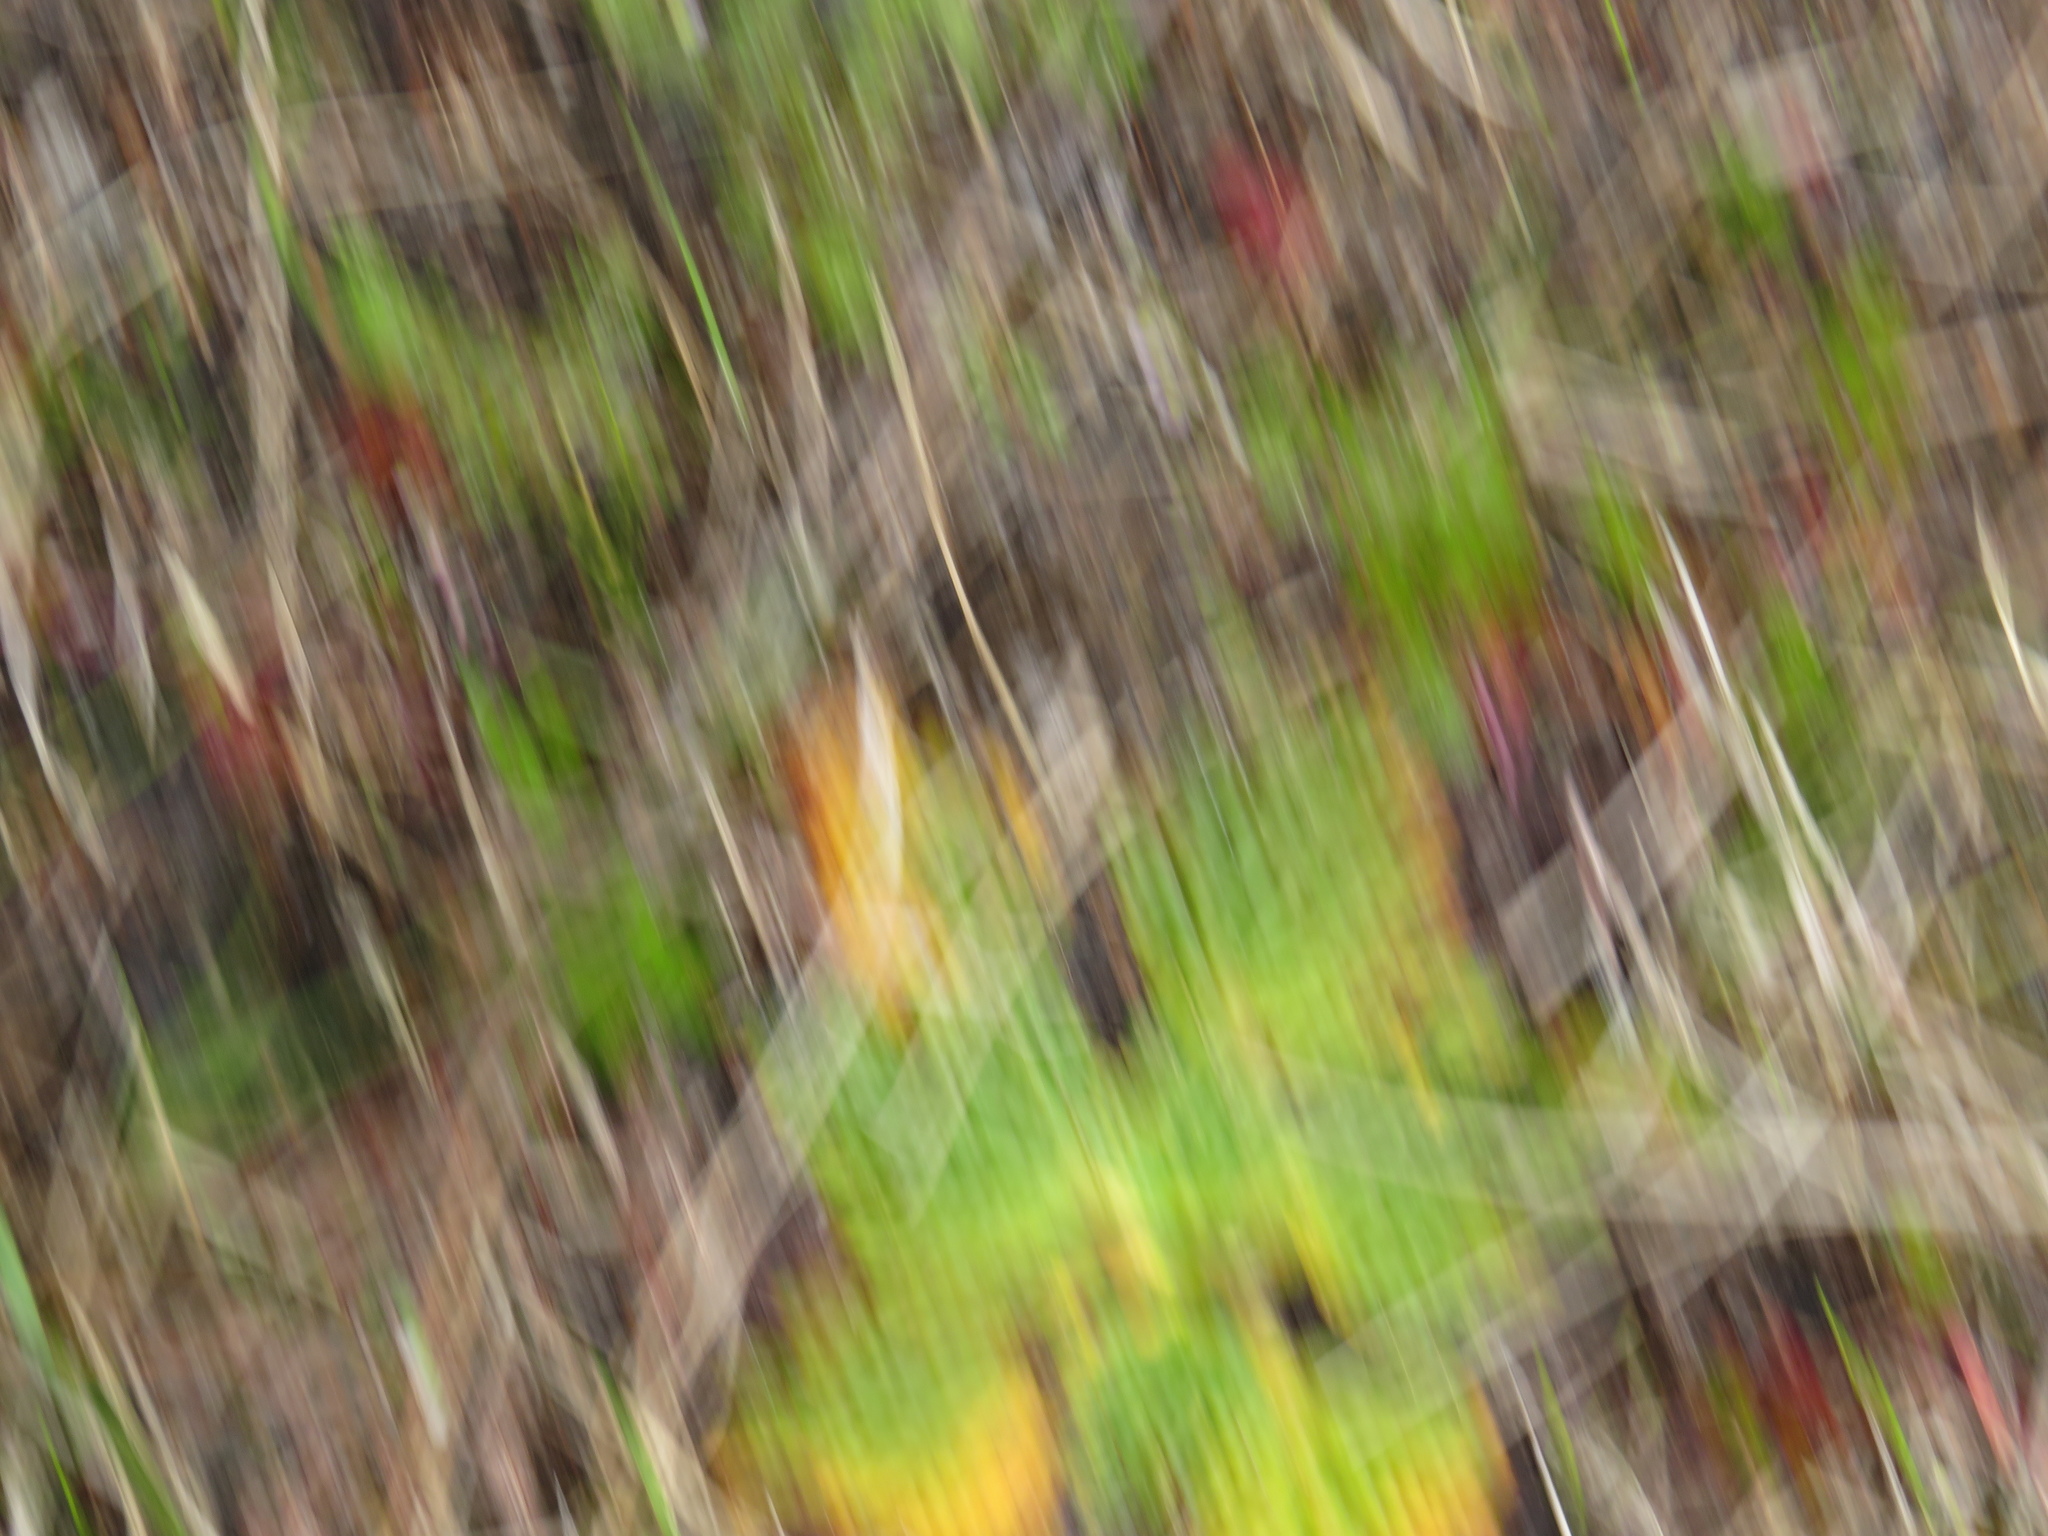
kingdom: Plantae
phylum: Tracheophyta
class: Magnoliopsida
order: Apiales
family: Apiaceae
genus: Arctopus
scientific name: Arctopus echinatus
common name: Platdoring
